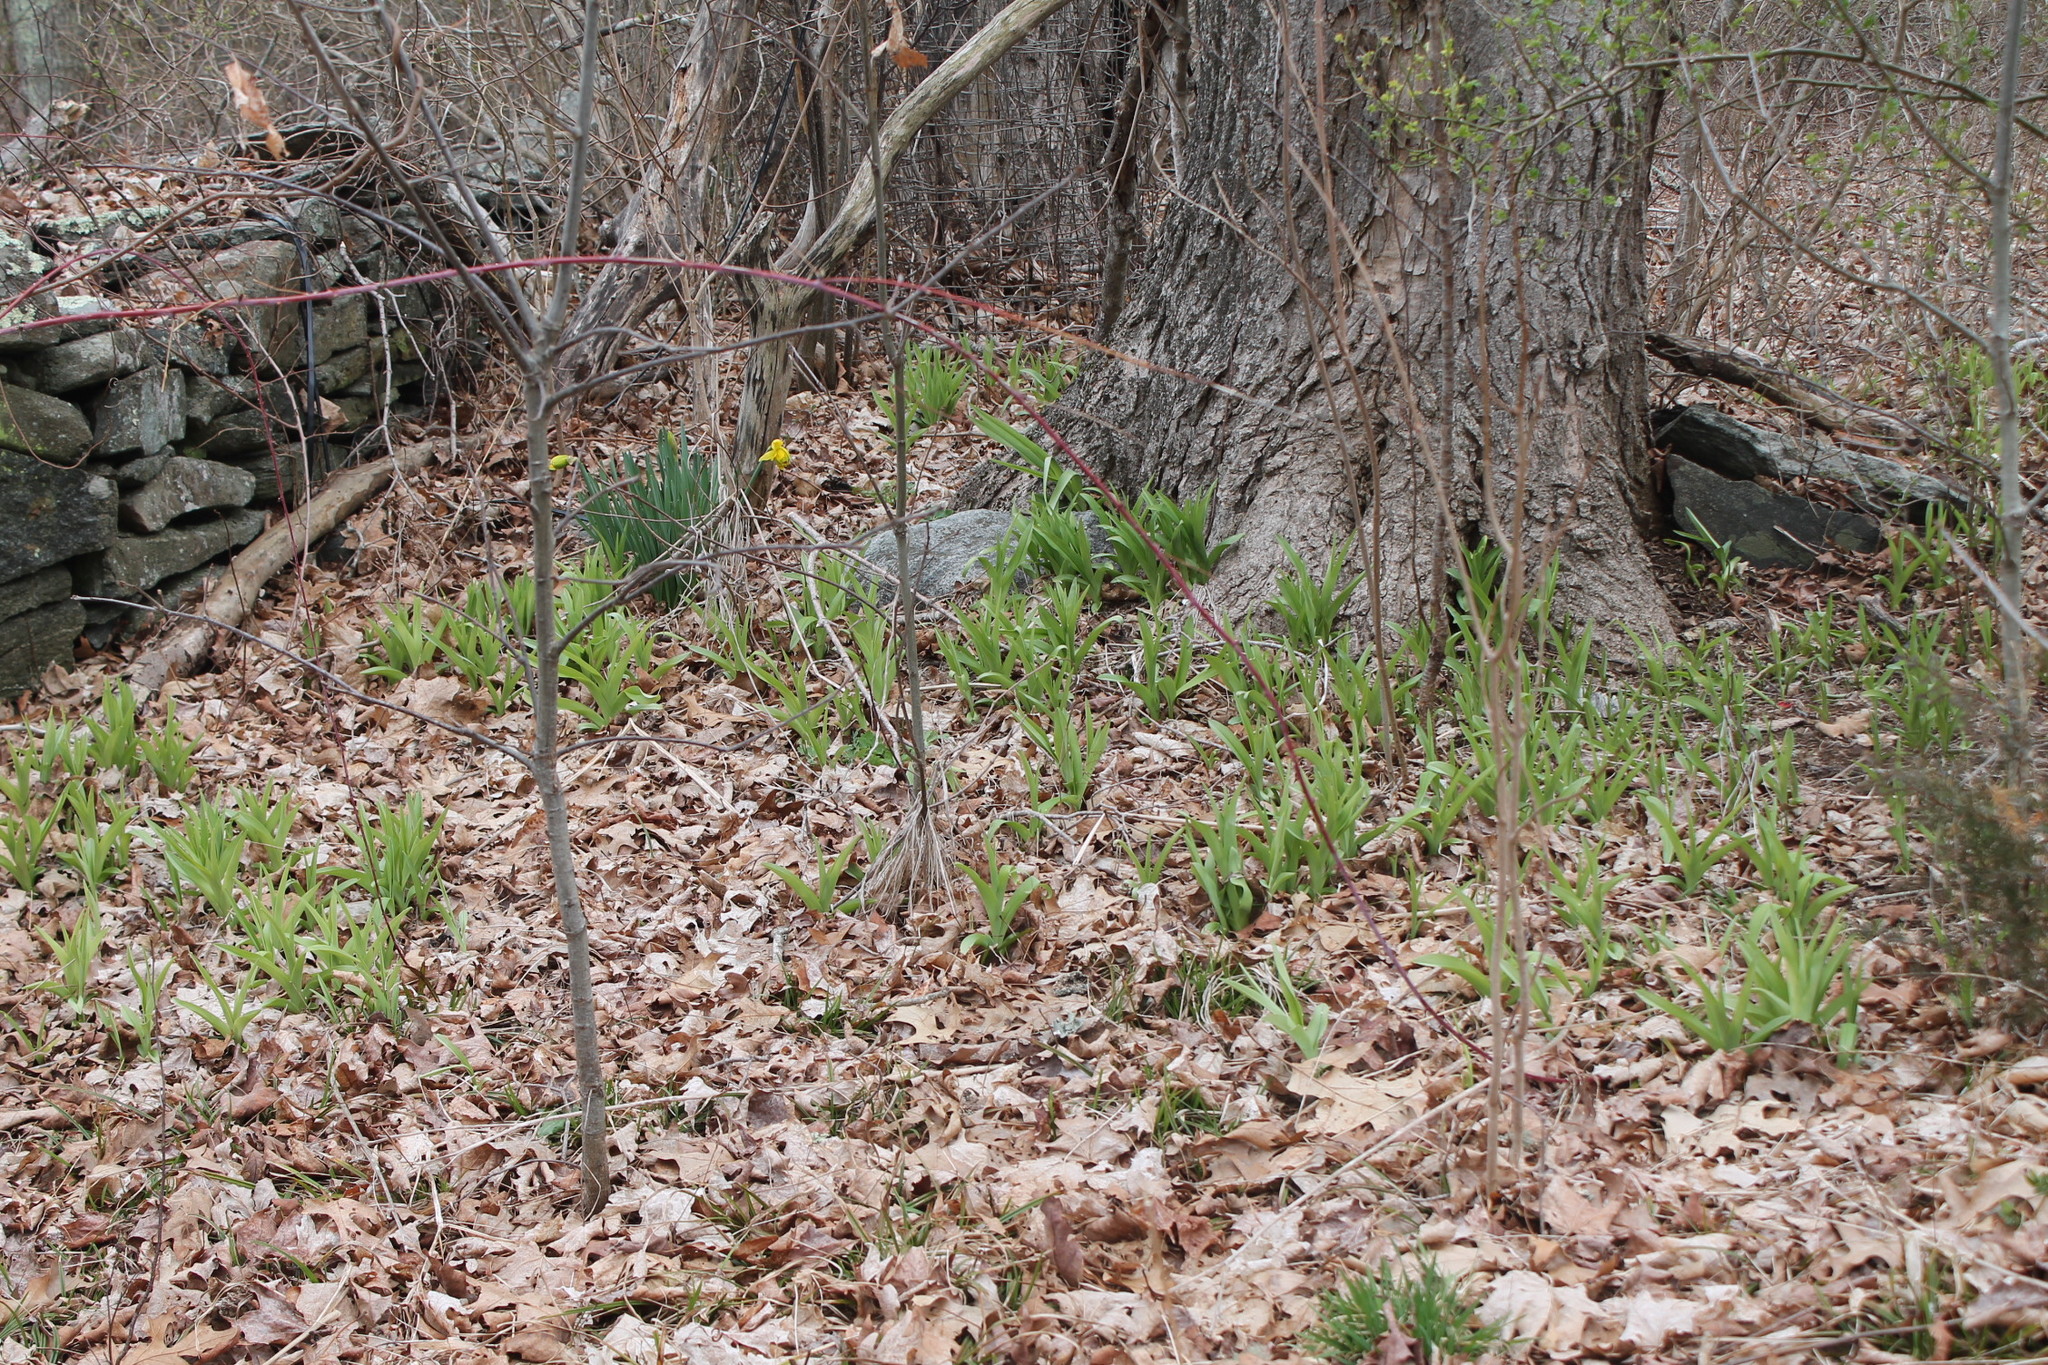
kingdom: Plantae
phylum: Tracheophyta
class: Liliopsida
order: Asparagales
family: Asphodelaceae
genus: Hemerocallis
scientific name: Hemerocallis fulva
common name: Orange day-lily
